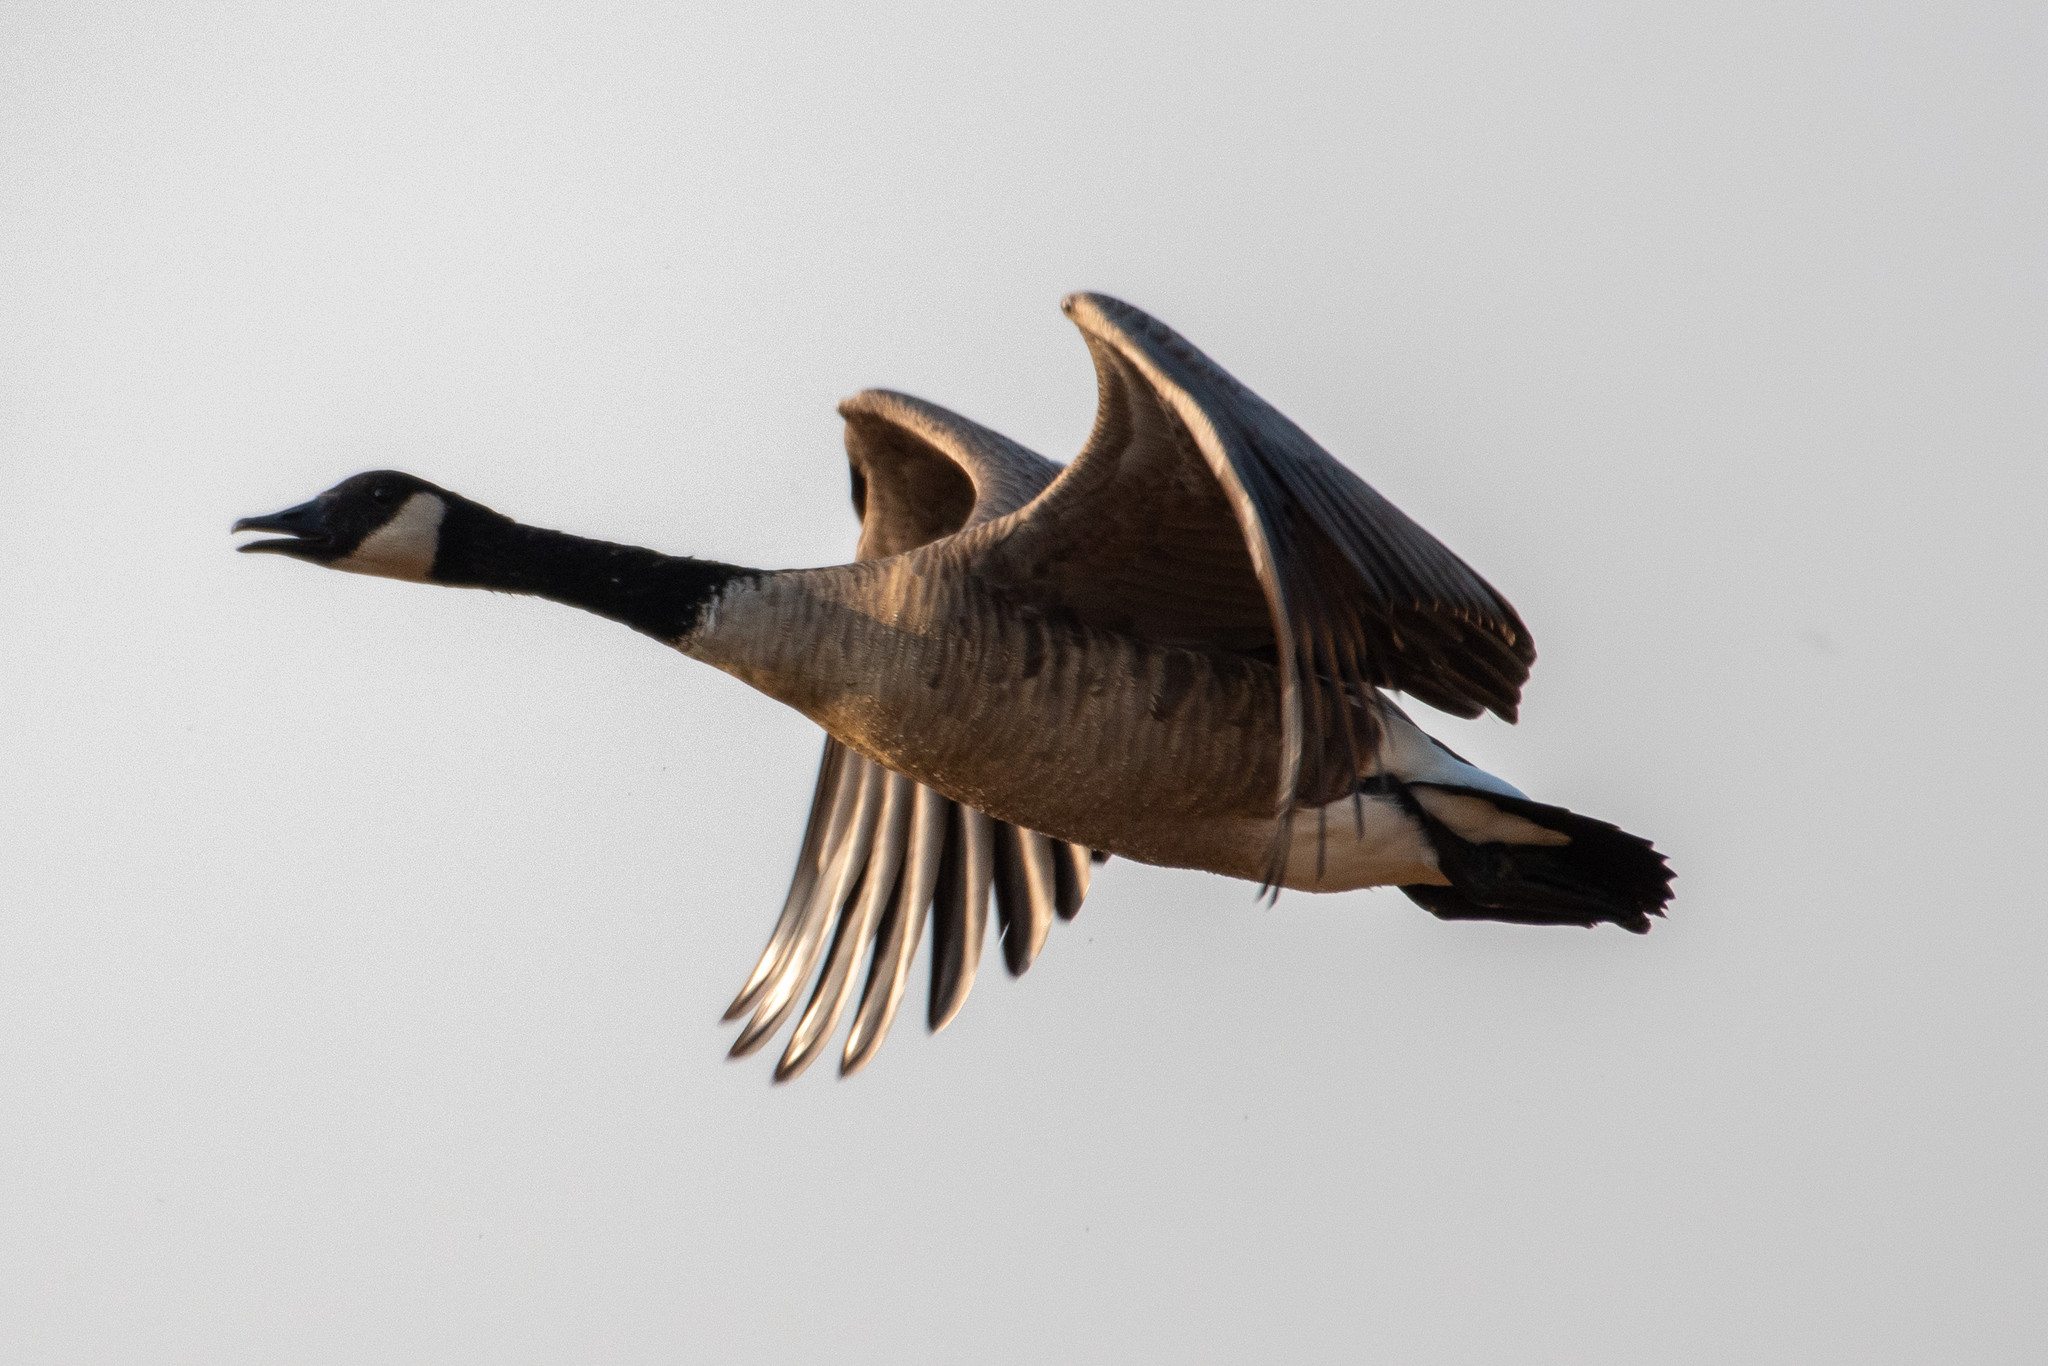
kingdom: Animalia
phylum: Chordata
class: Aves
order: Anseriformes
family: Anatidae
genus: Branta
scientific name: Branta canadensis
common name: Canada goose
